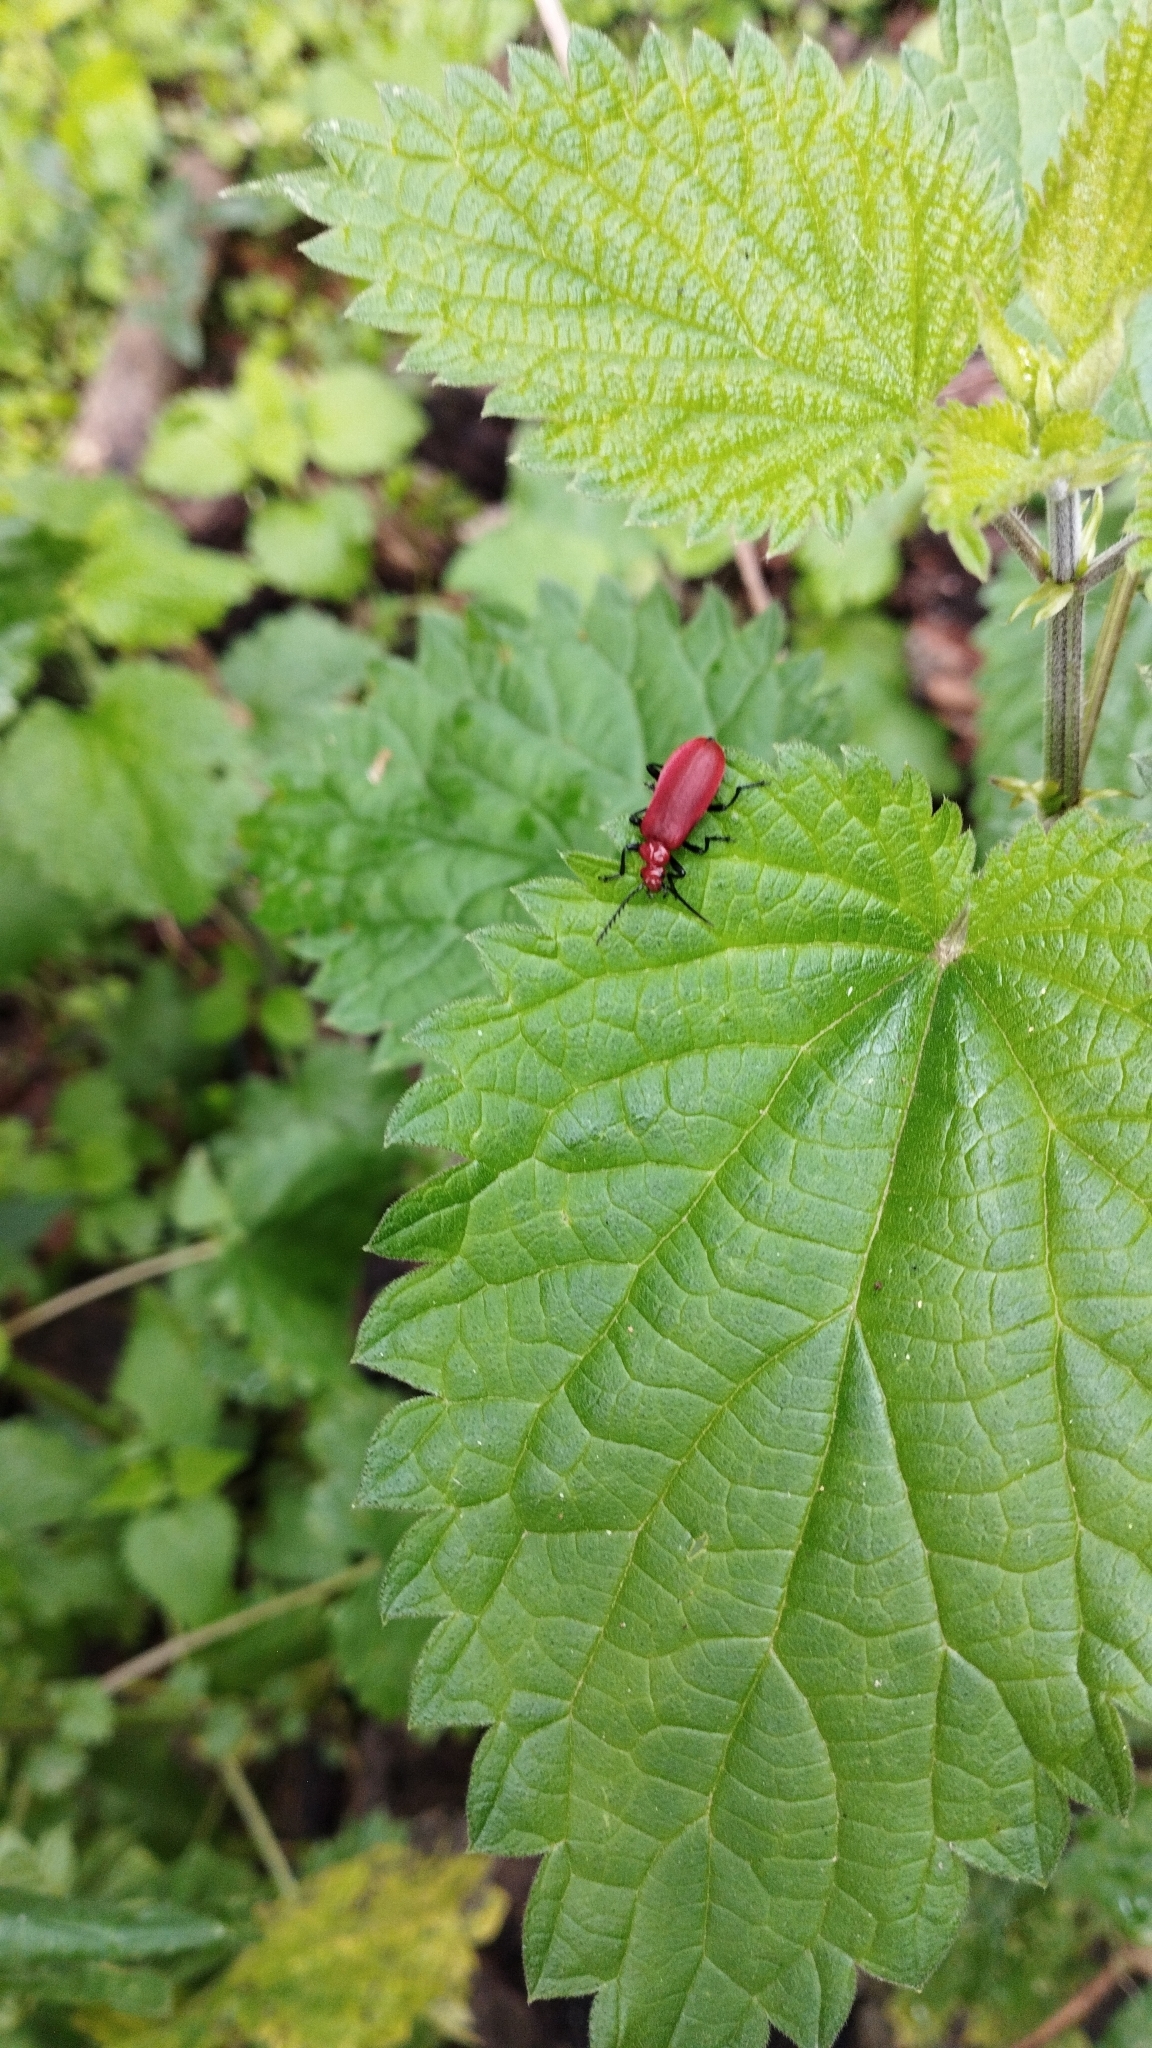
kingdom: Animalia
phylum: Arthropoda
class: Insecta
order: Coleoptera
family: Pyrochroidae
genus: Pyrochroa
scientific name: Pyrochroa serraticornis
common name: Red-headed cardinal beetle
